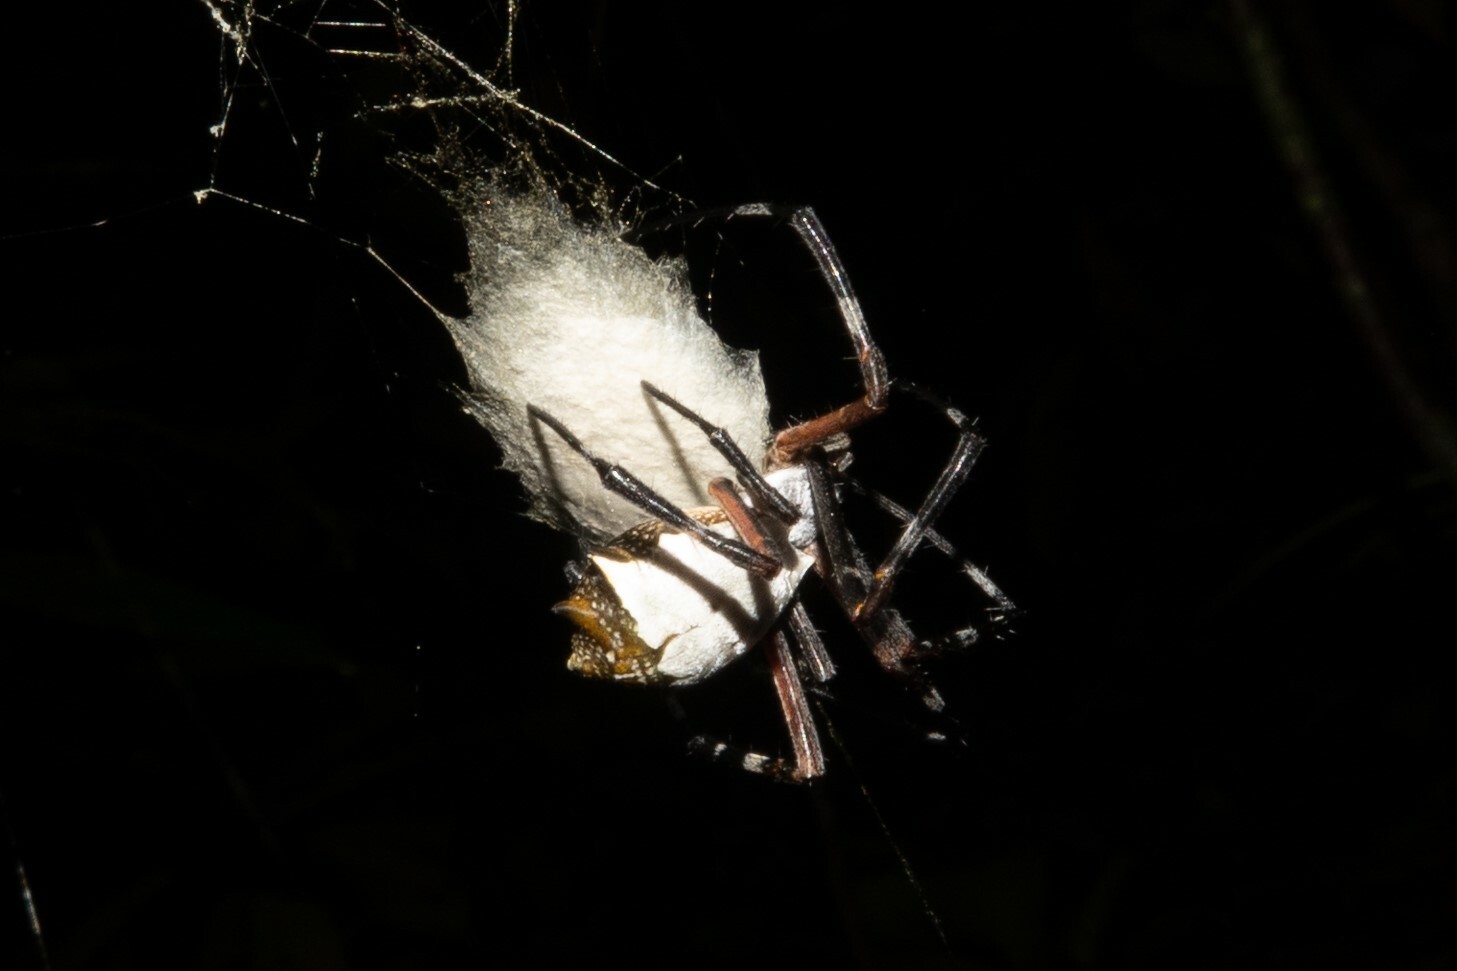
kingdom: Animalia
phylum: Arthropoda
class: Arachnida
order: Araneae
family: Araneidae
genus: Argiope
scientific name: Argiope submaronica
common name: Orb weavers
